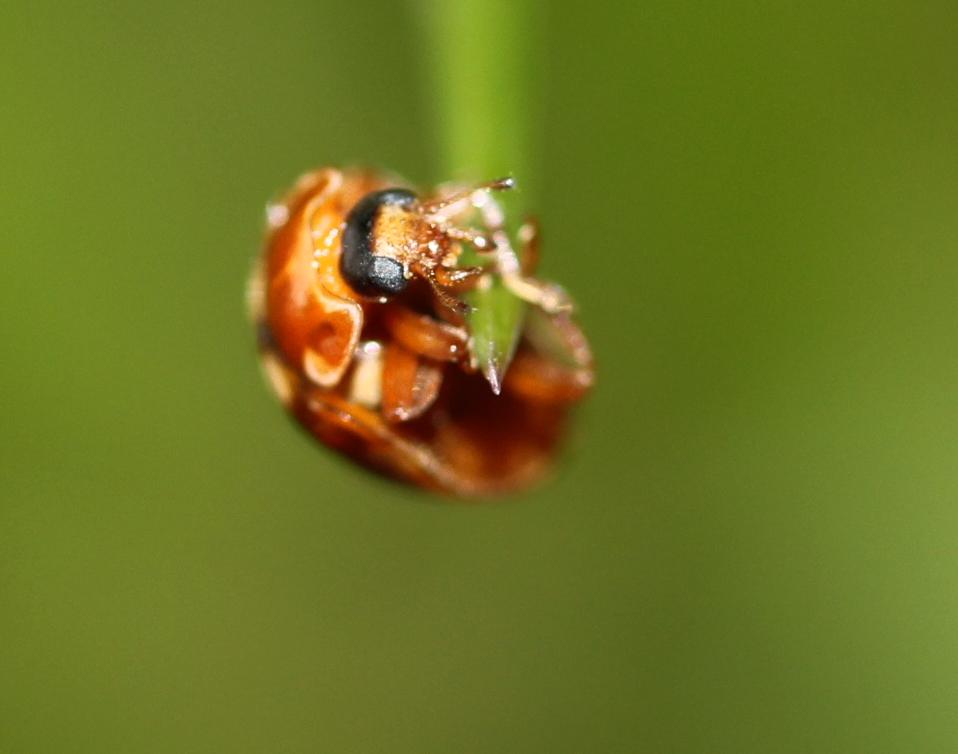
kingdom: Animalia
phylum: Arthropoda
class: Insecta
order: Coleoptera
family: Coccinellidae
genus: Calvia
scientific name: Calvia quatuordecimguttata
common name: Cream-spot ladybird
